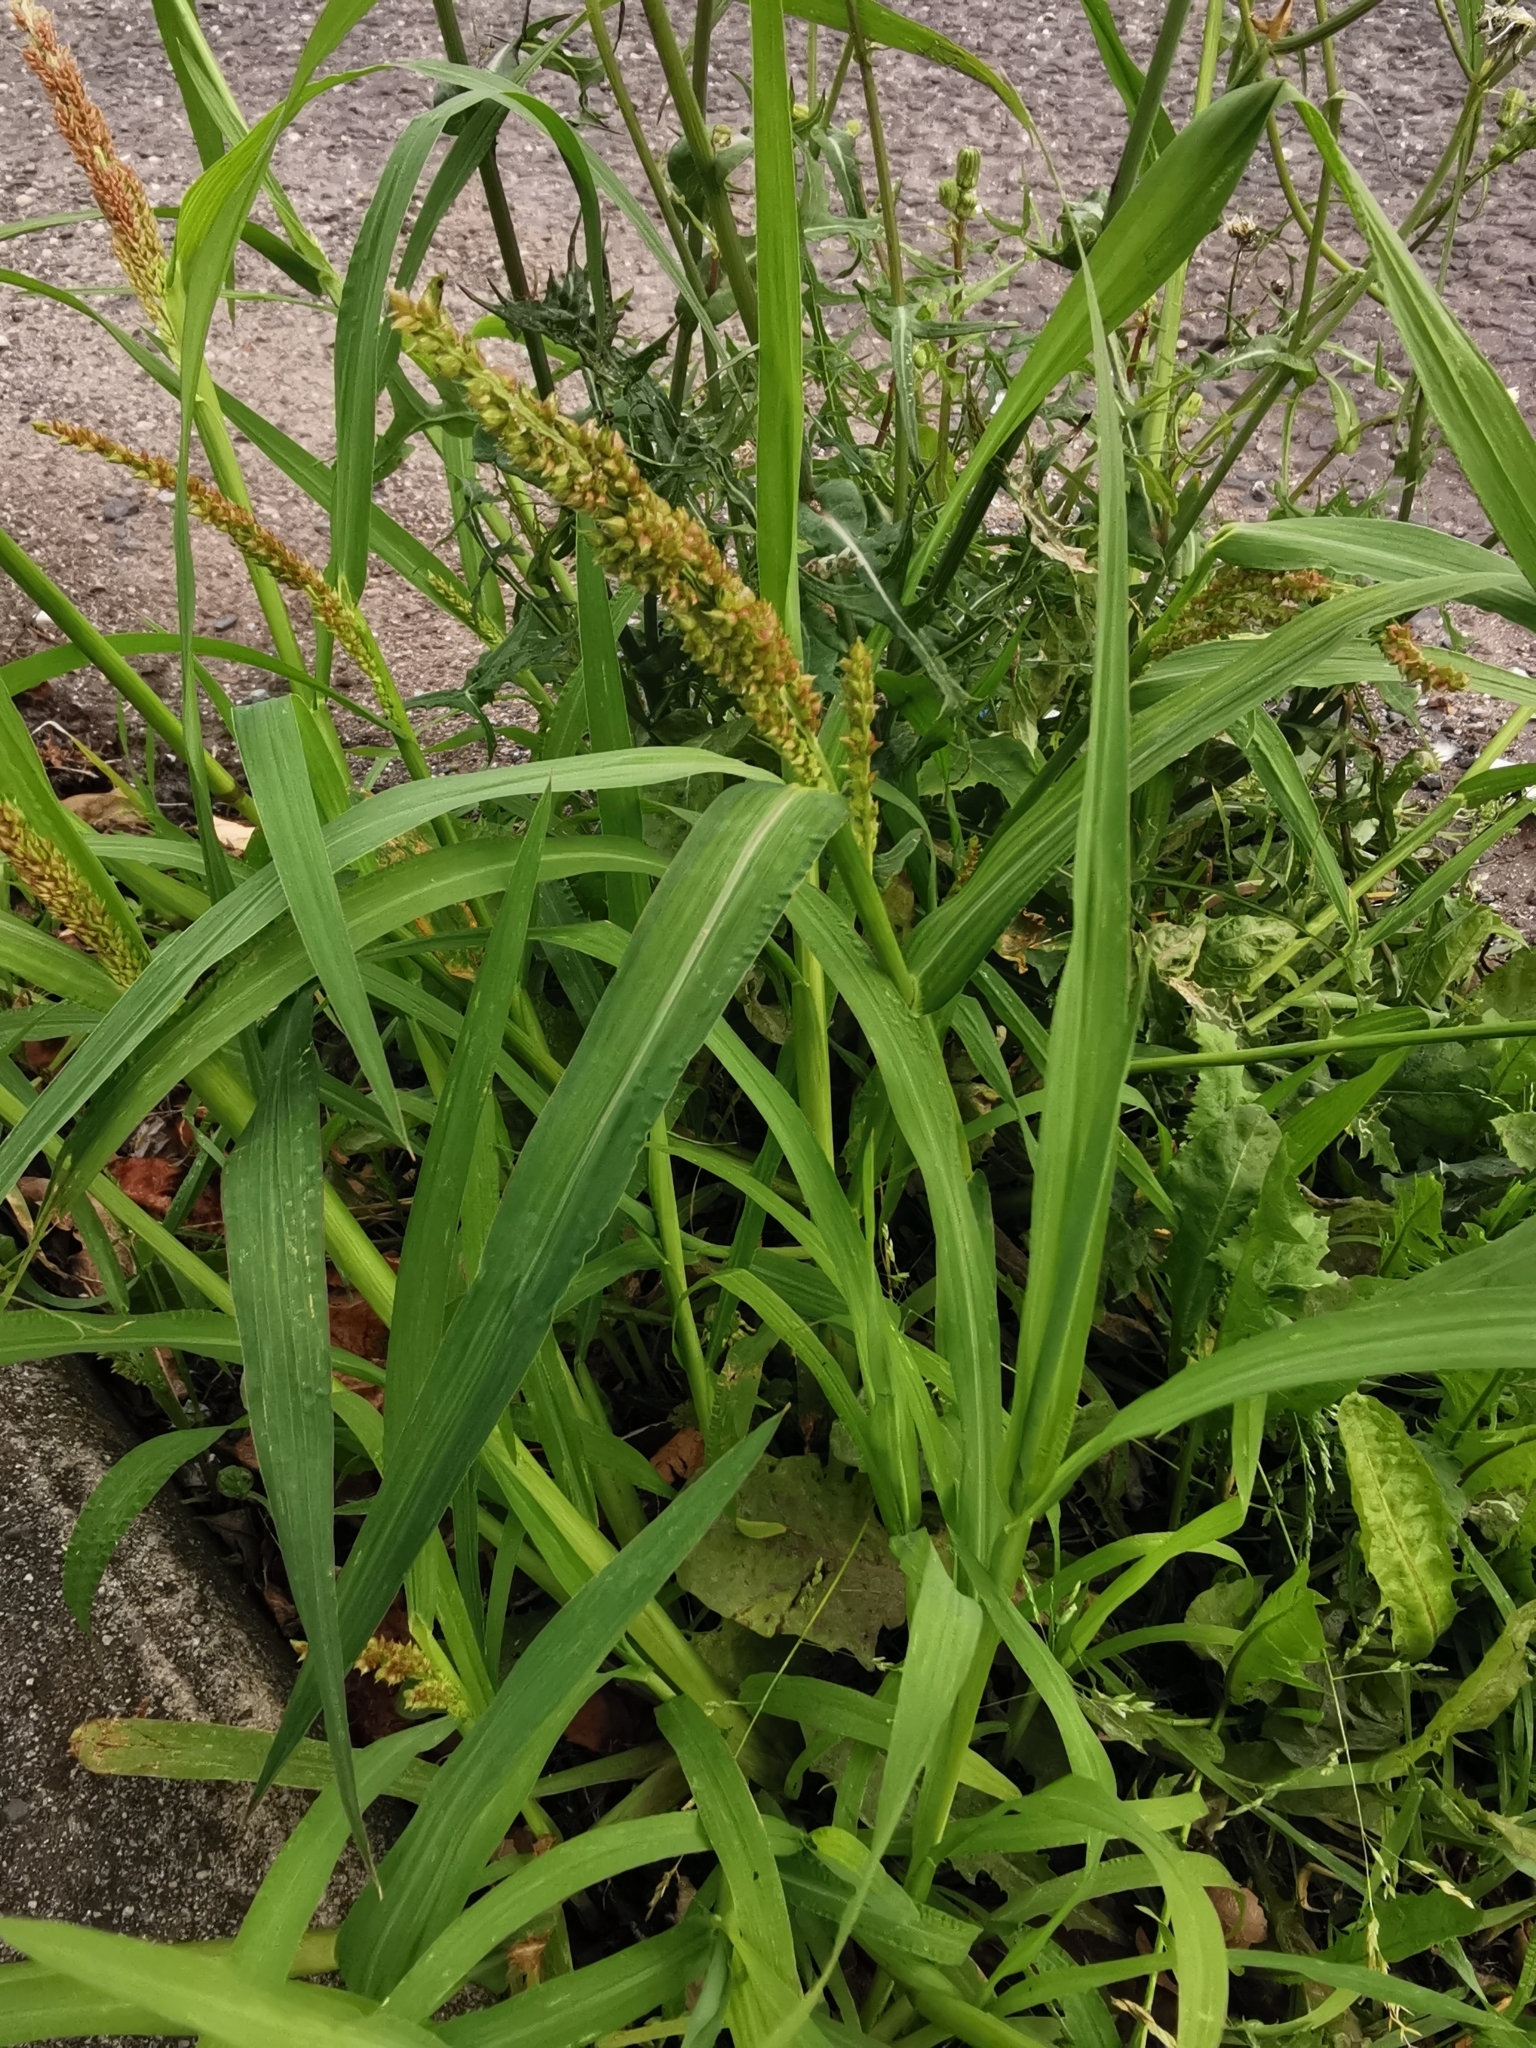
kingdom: Plantae
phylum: Tracheophyta
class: Liliopsida
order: Poales
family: Poaceae
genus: Echinochloa
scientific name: Echinochloa crus-galli
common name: Cockspur
